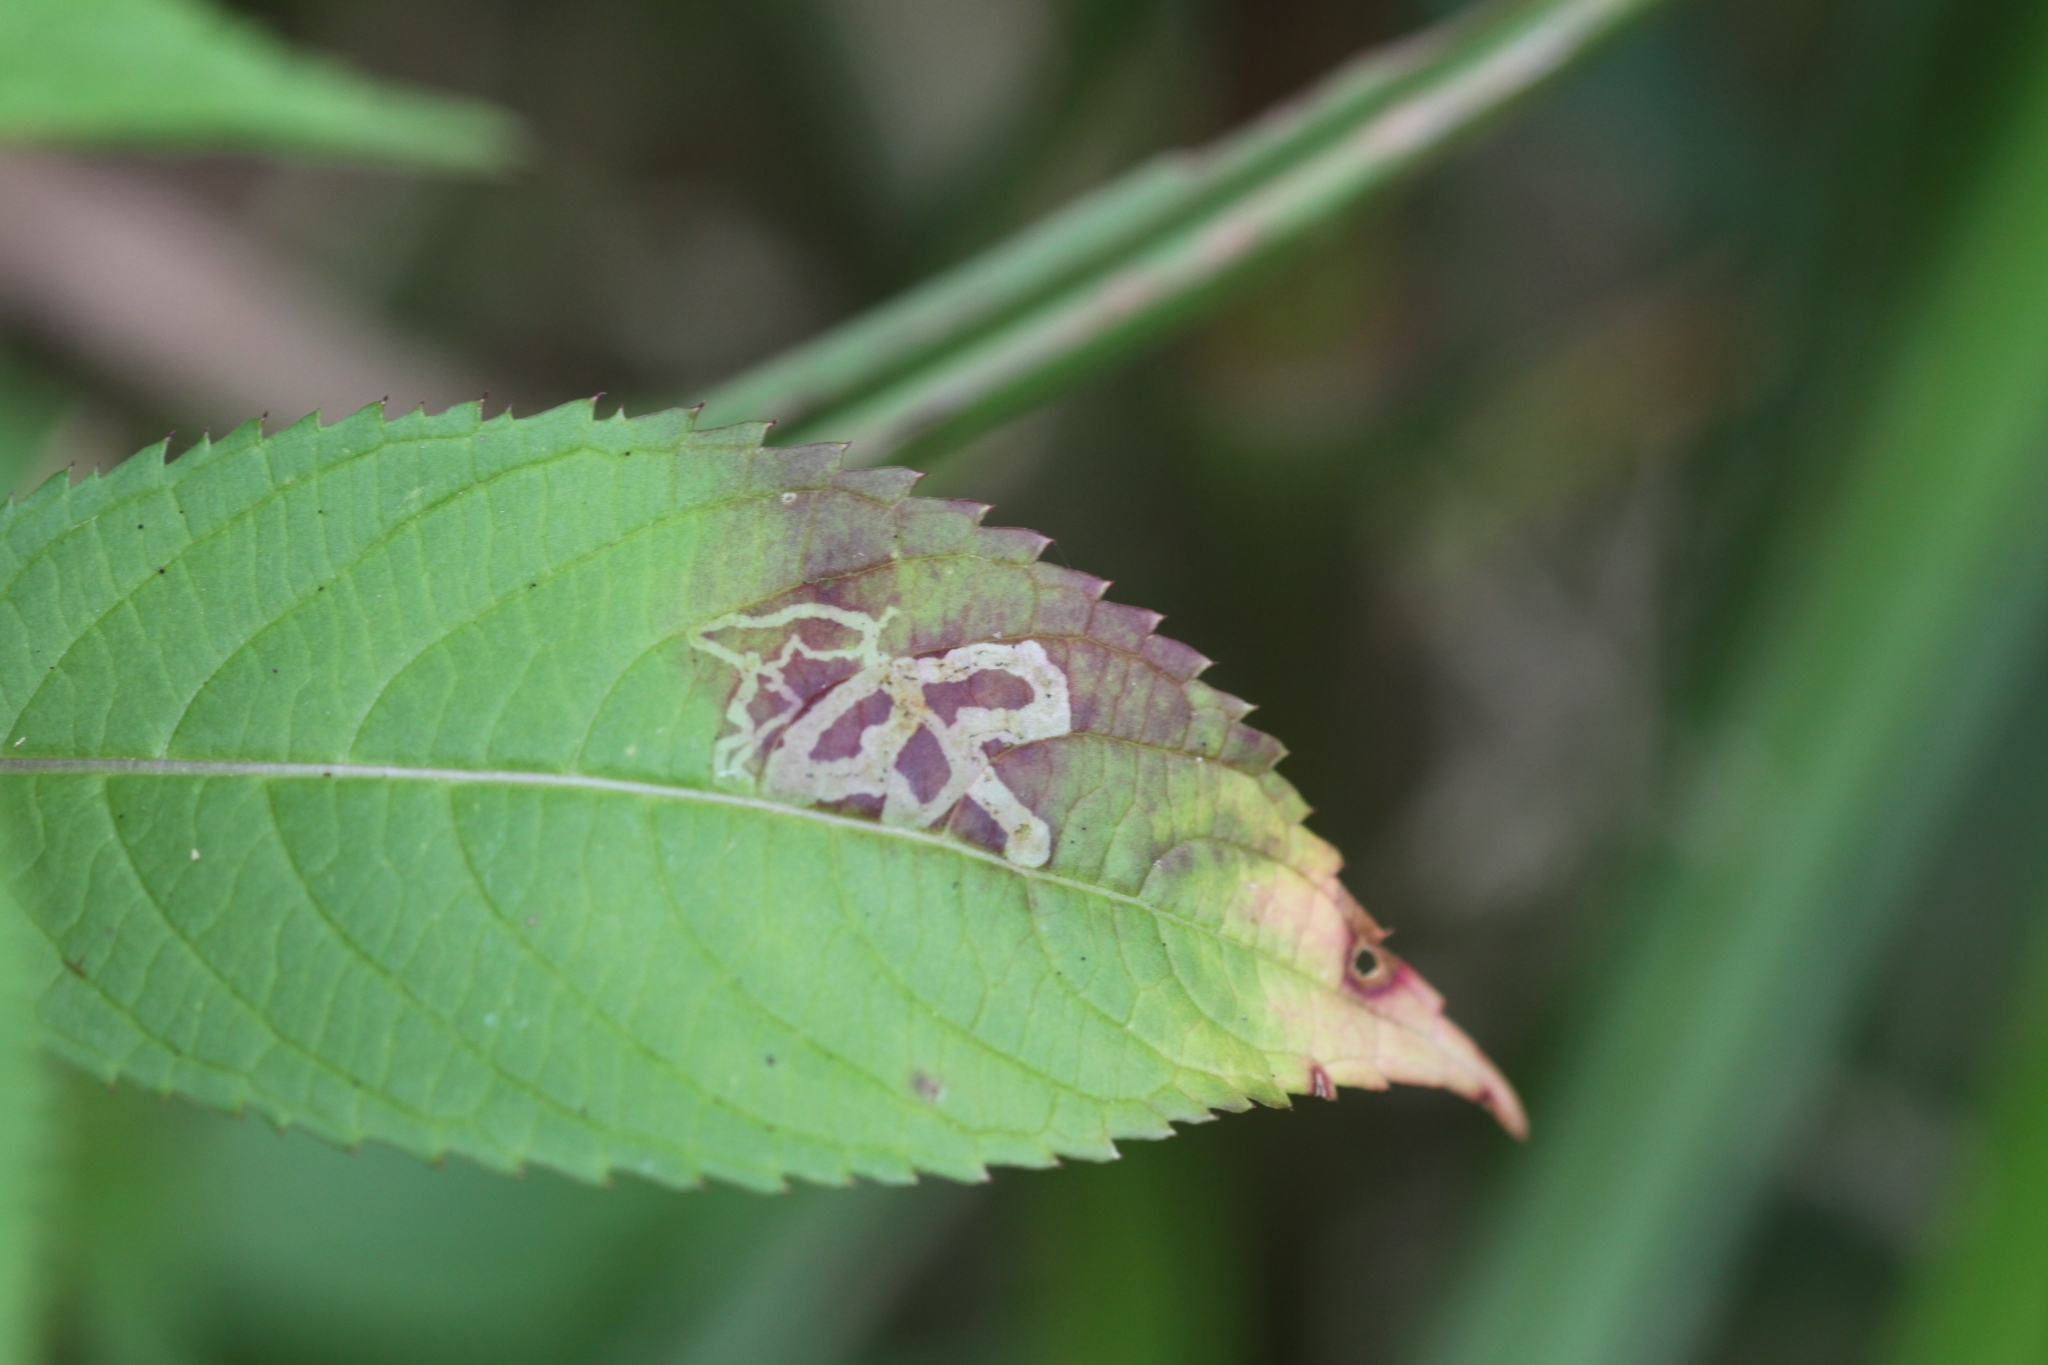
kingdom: Animalia
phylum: Arthropoda
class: Insecta
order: Diptera
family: Agromyzidae
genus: Phytoliriomyza
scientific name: Phytoliriomyza melampyga
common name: Jewelweed leaf-miner fly
